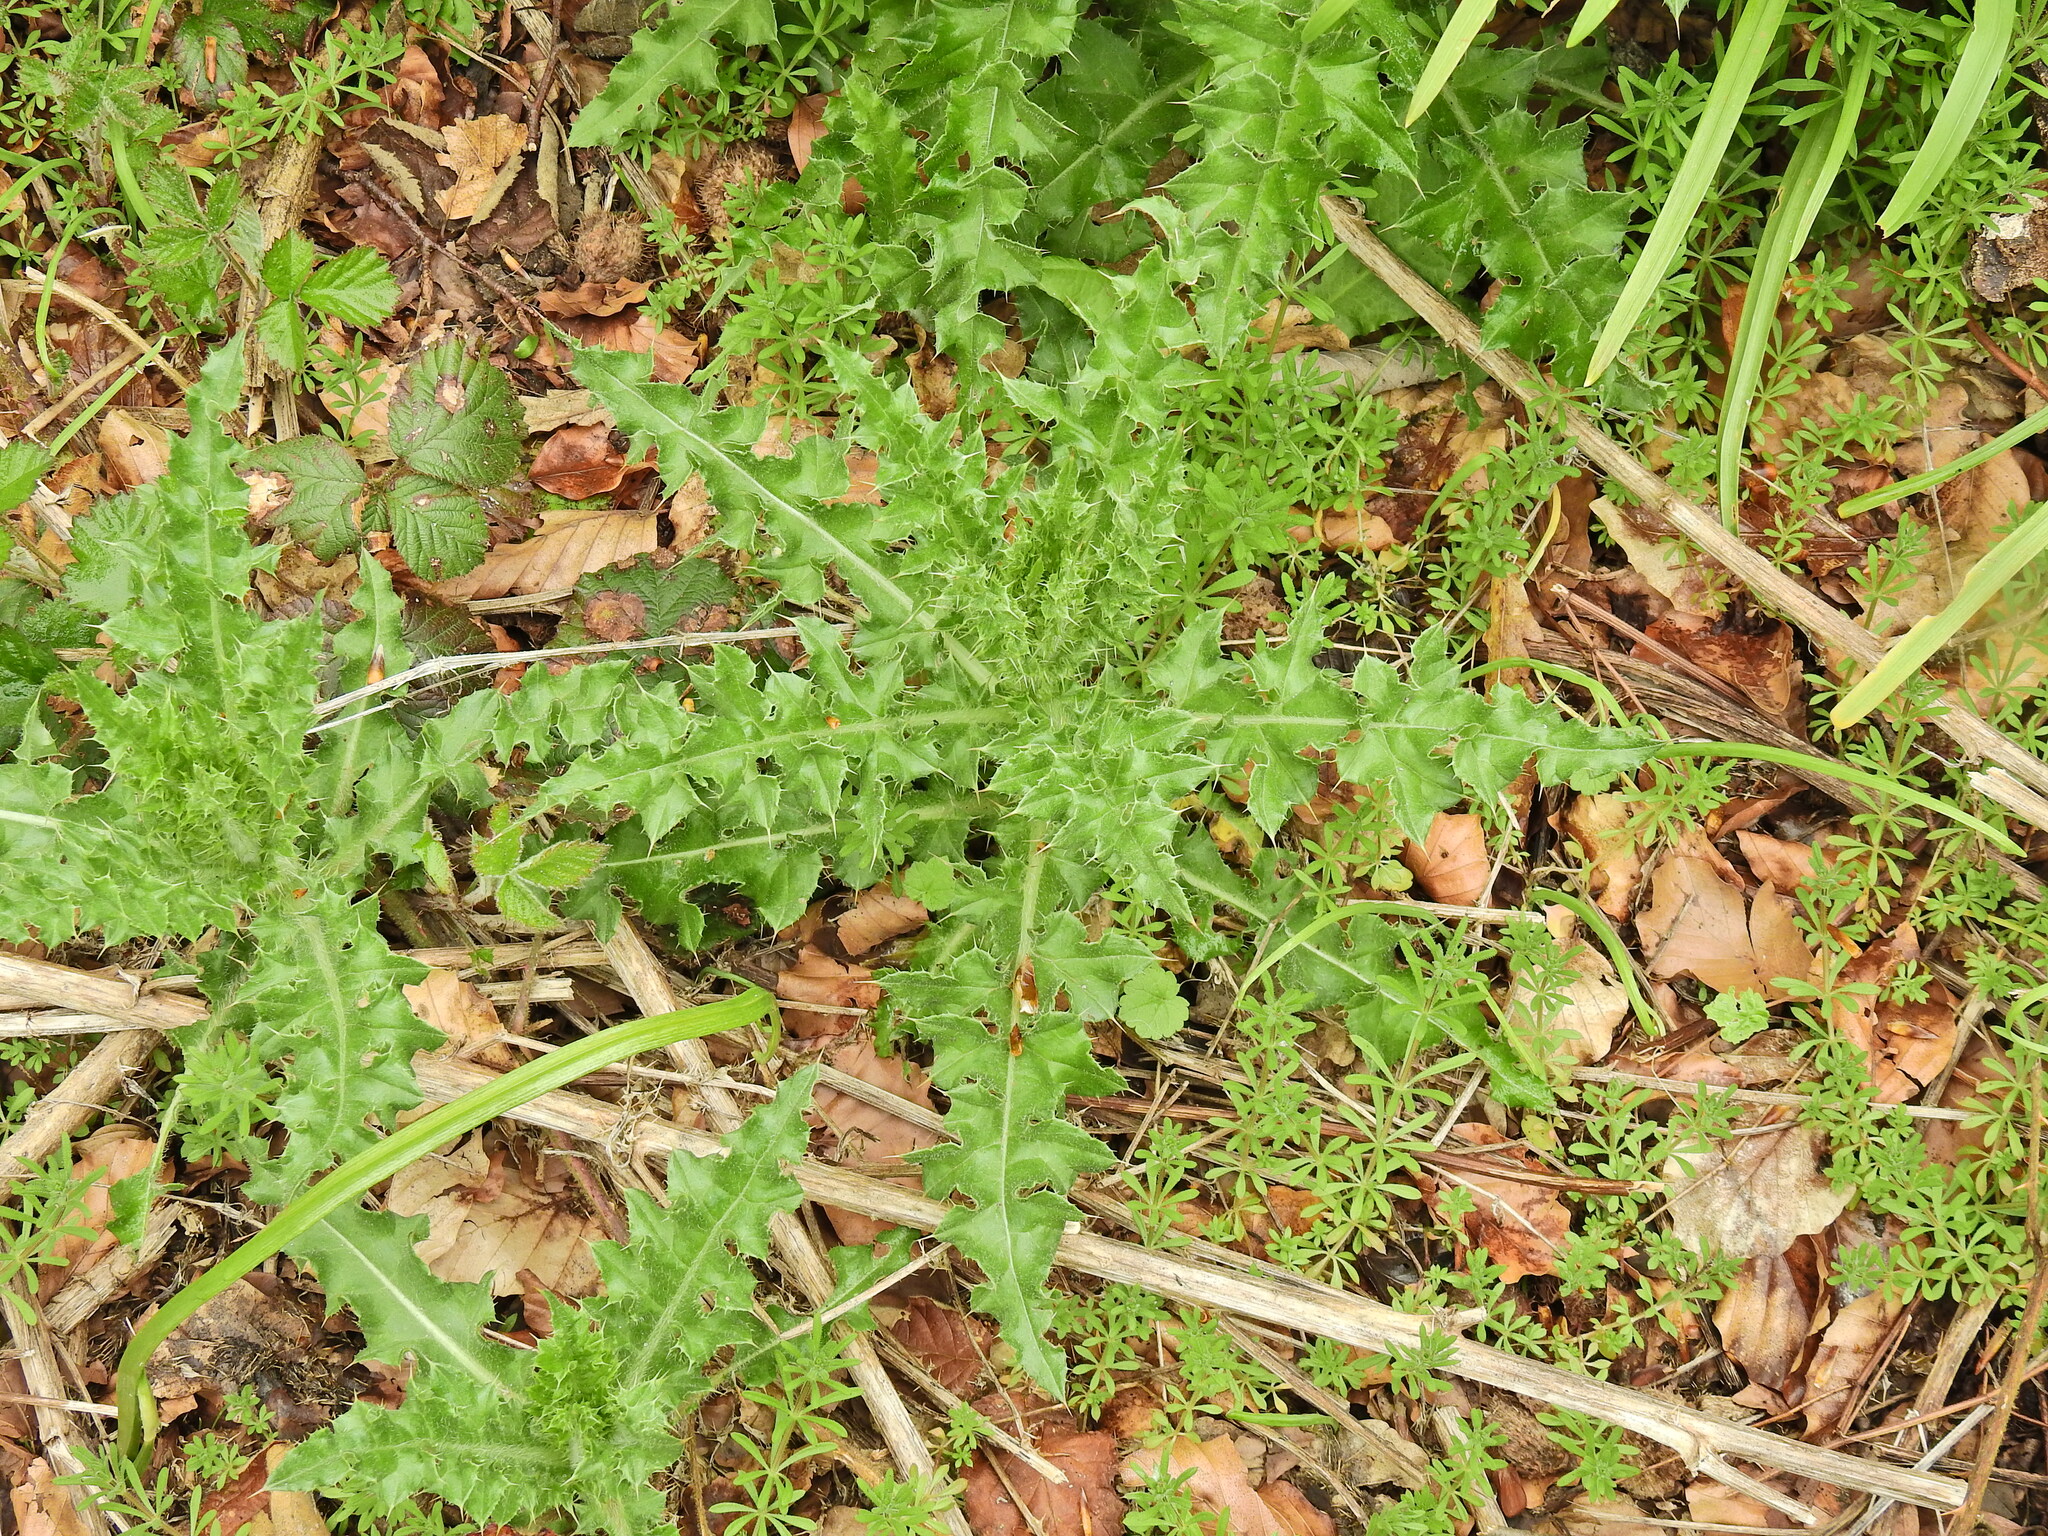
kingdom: Plantae
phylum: Tracheophyta
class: Magnoliopsida
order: Asterales
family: Asteraceae
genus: Cirsium
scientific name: Cirsium arvense
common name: Creeping thistle
